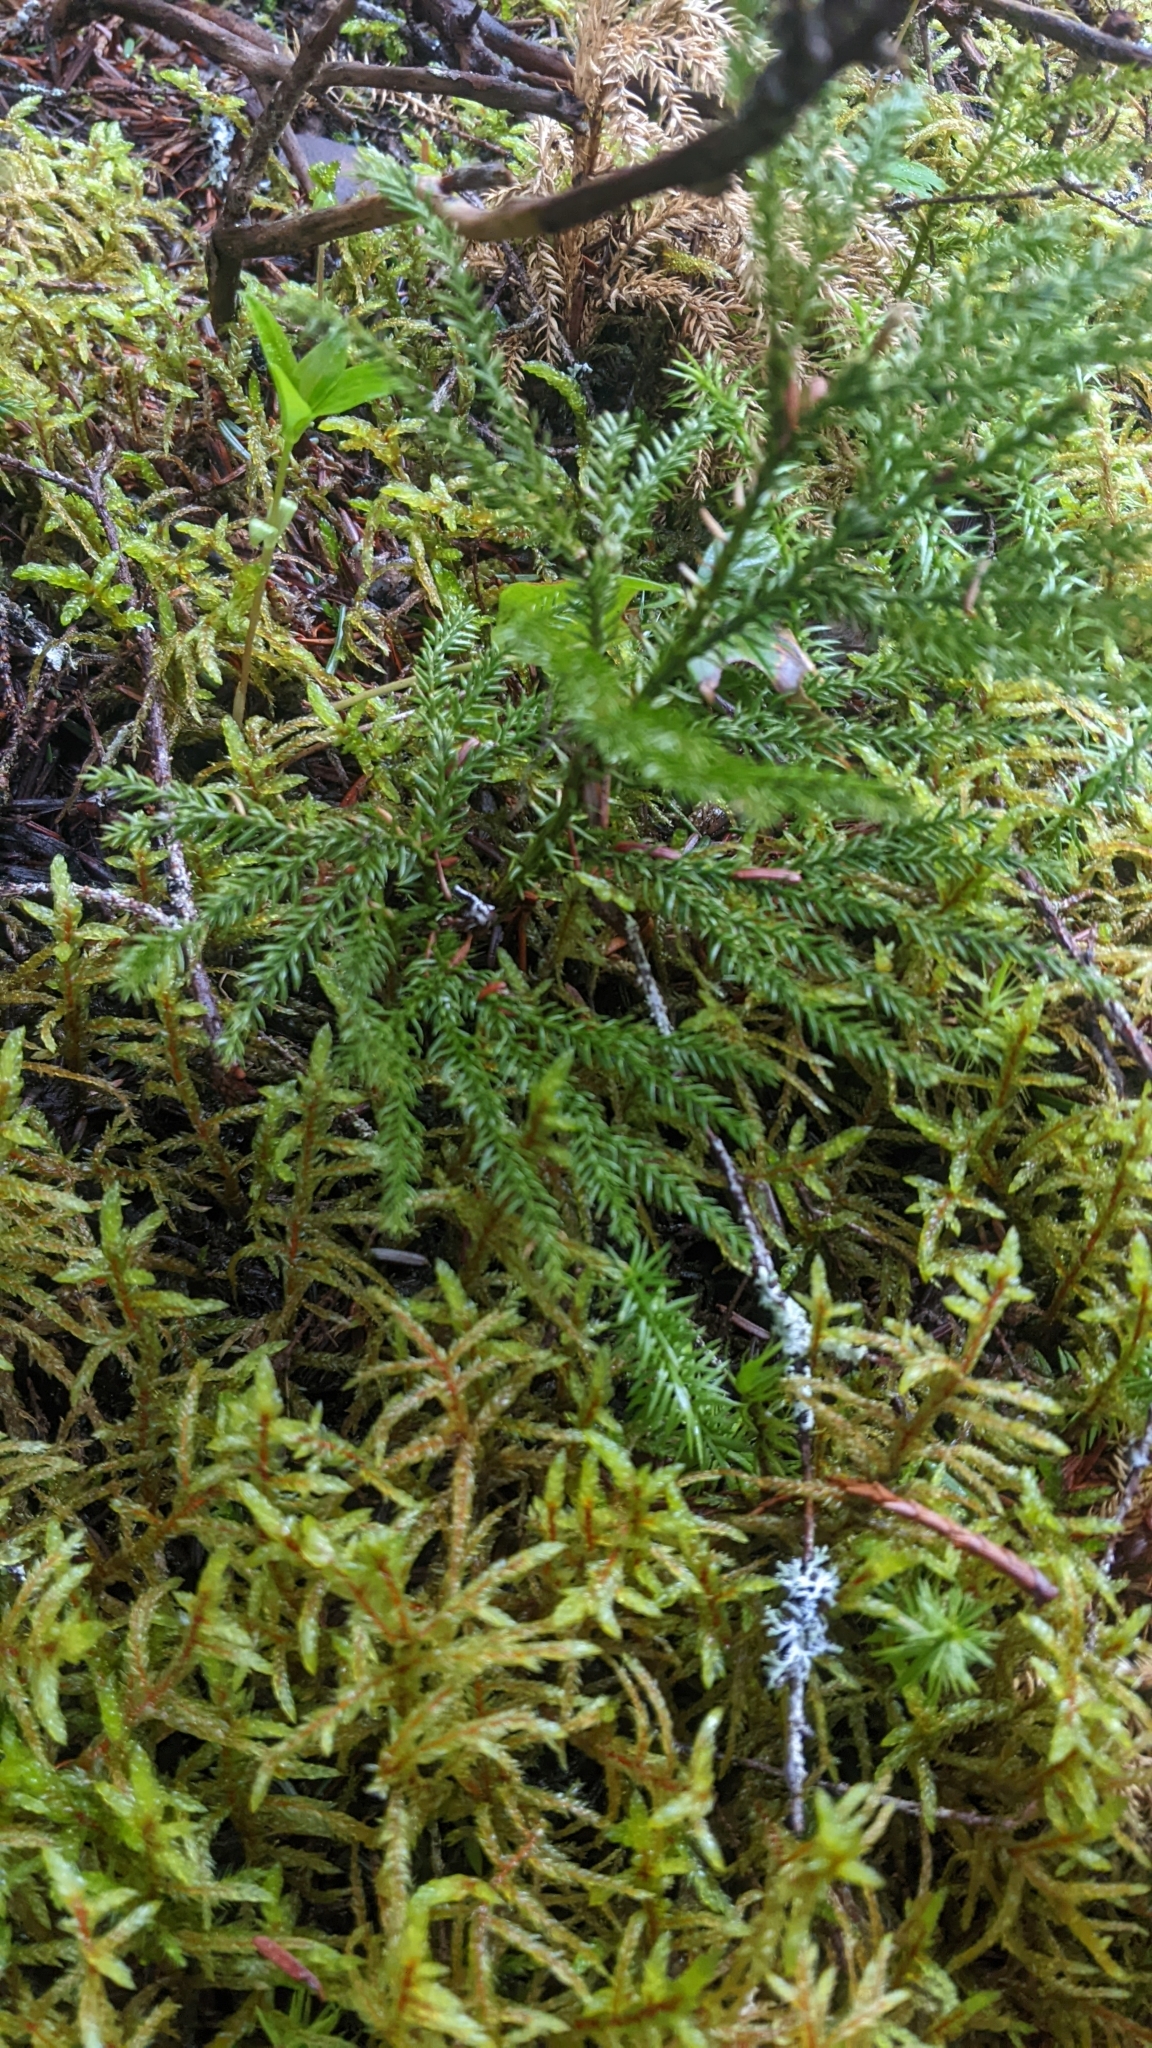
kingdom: Plantae
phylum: Tracheophyta
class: Lycopodiopsida
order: Lycopodiales
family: Lycopodiaceae
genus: Dendrolycopodium
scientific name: Dendrolycopodium dendroideum
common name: Northern tree-clubmoss
